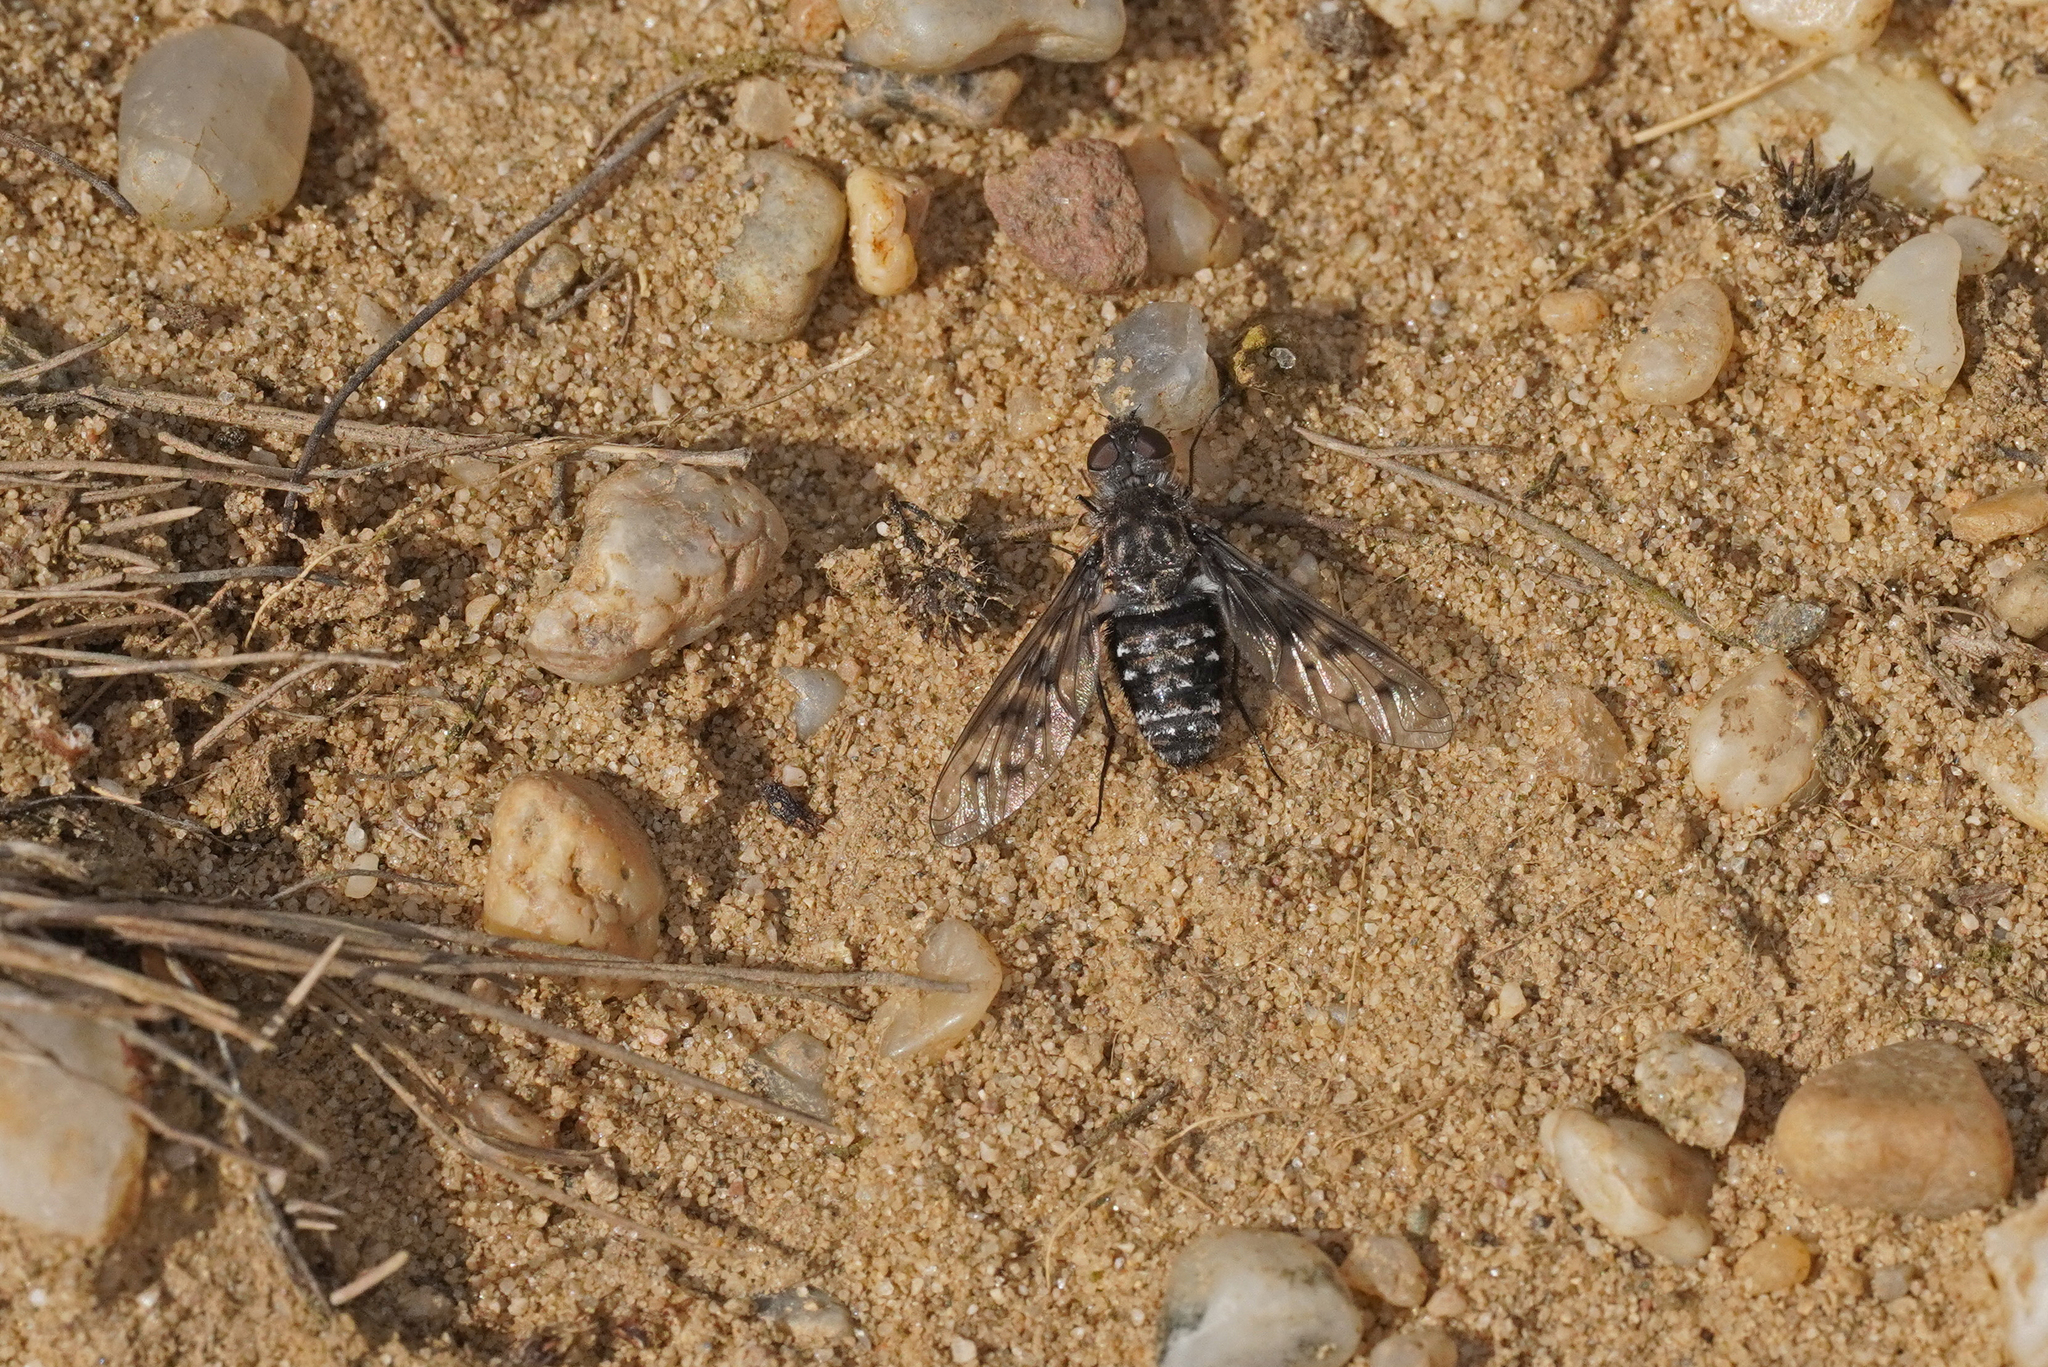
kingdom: Animalia
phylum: Arthropoda
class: Insecta
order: Diptera
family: Bombyliidae
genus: Anthrax
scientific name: Anthrax varius
